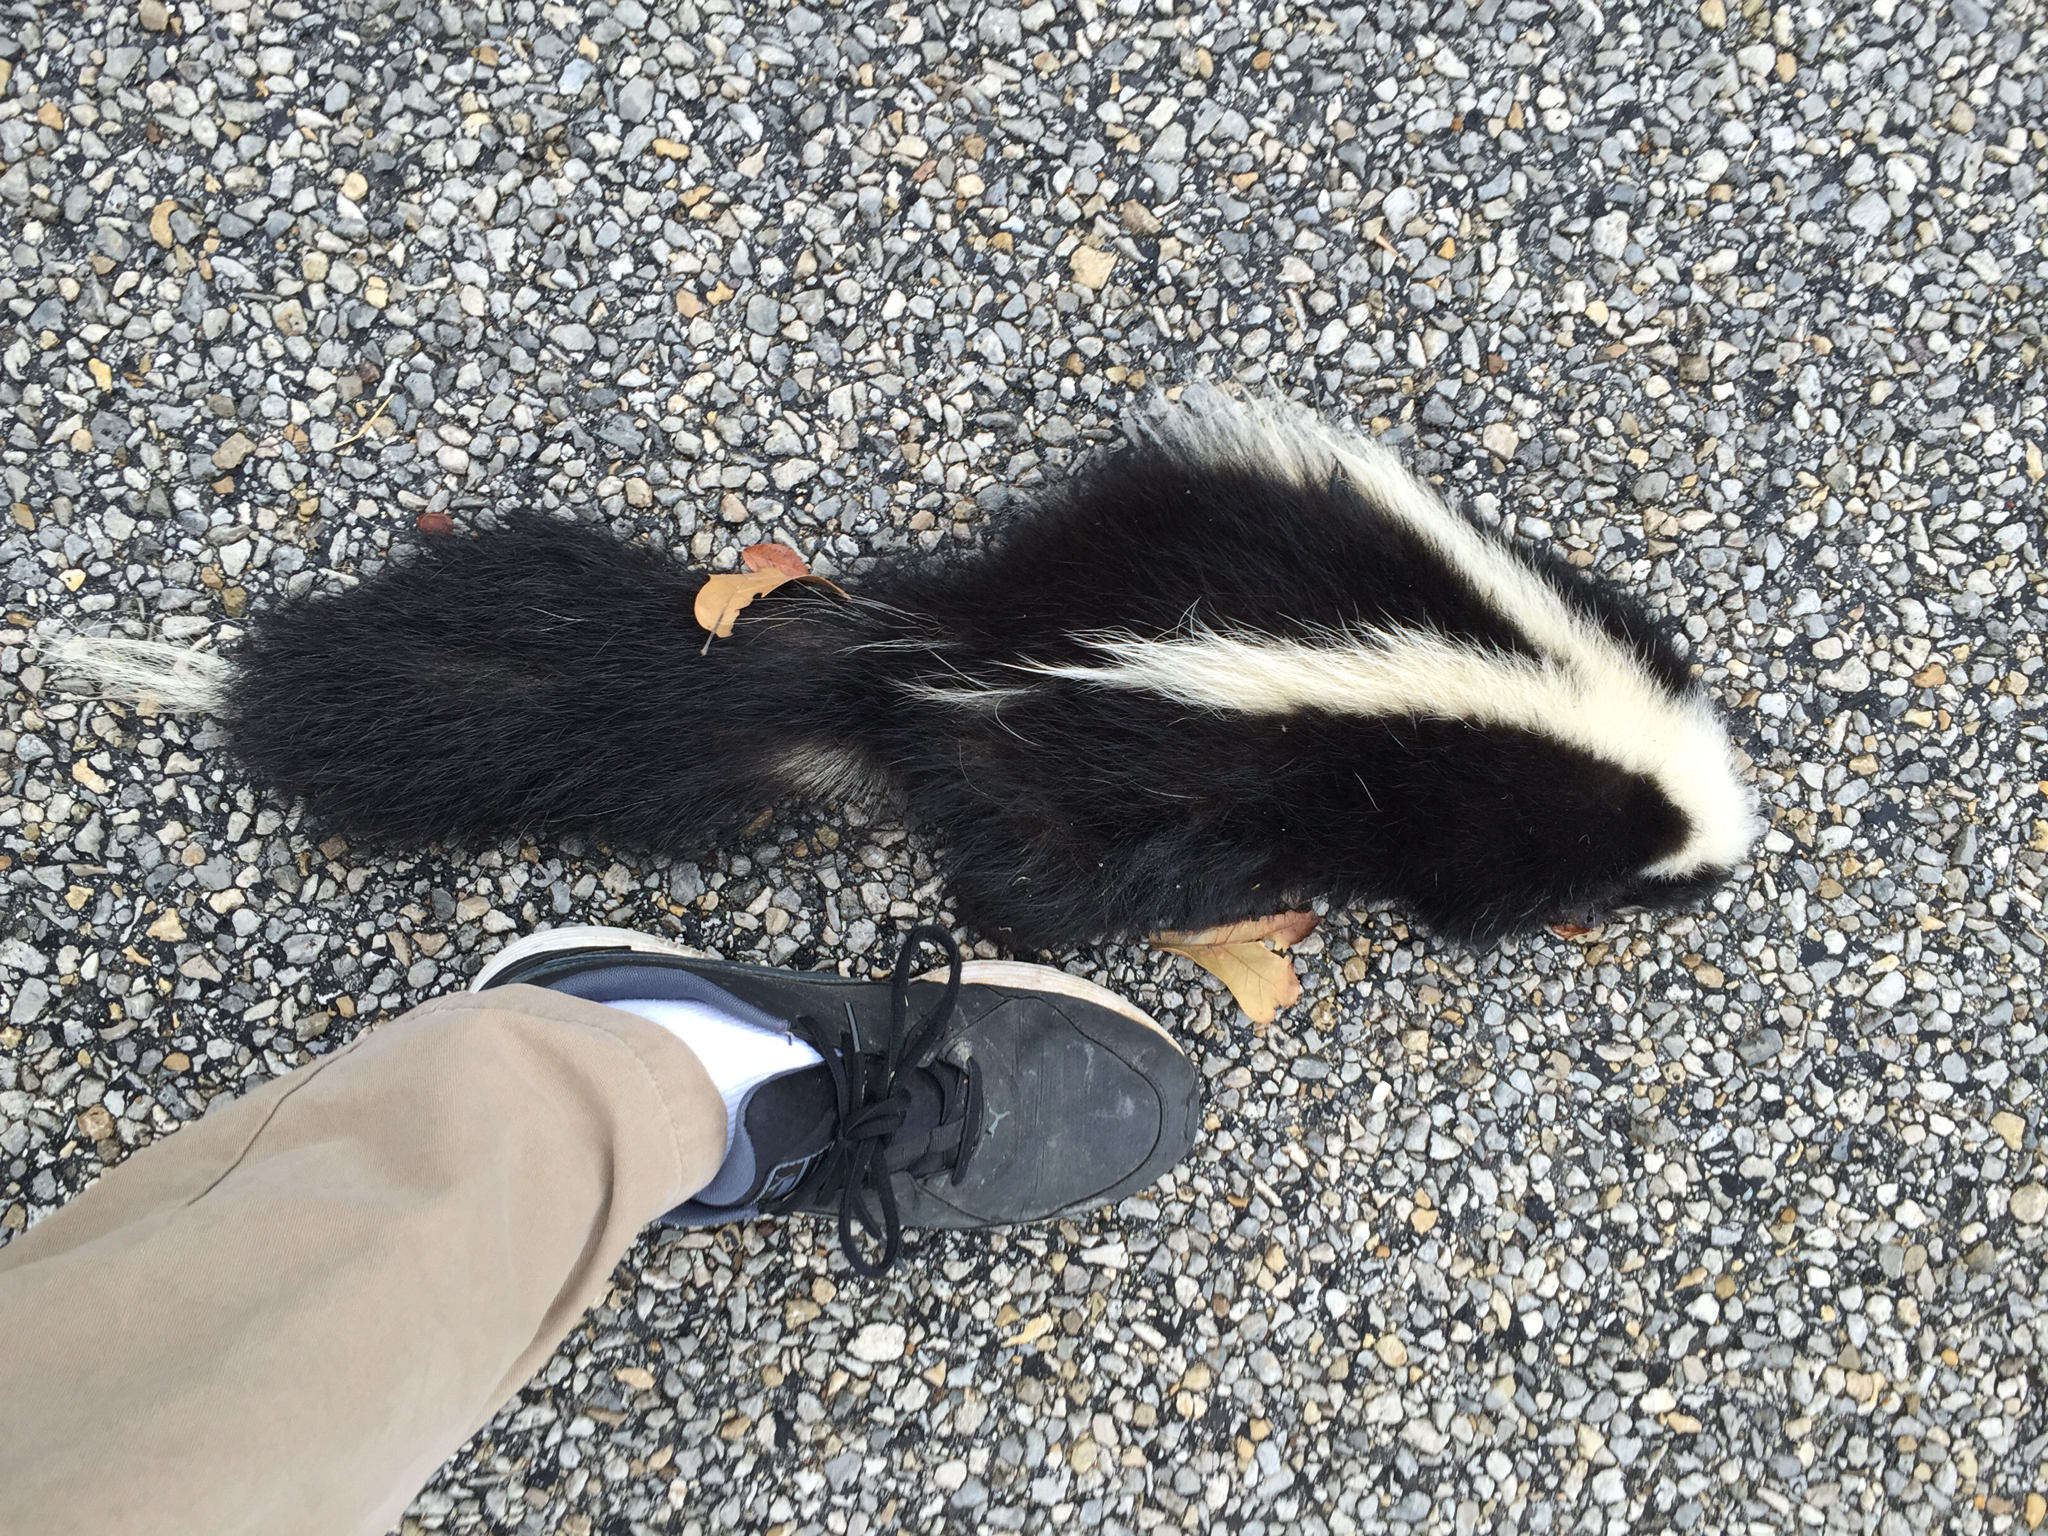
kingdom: Animalia
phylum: Chordata
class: Mammalia
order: Carnivora
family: Mephitidae
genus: Mephitis
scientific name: Mephitis mephitis
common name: Striped skunk
